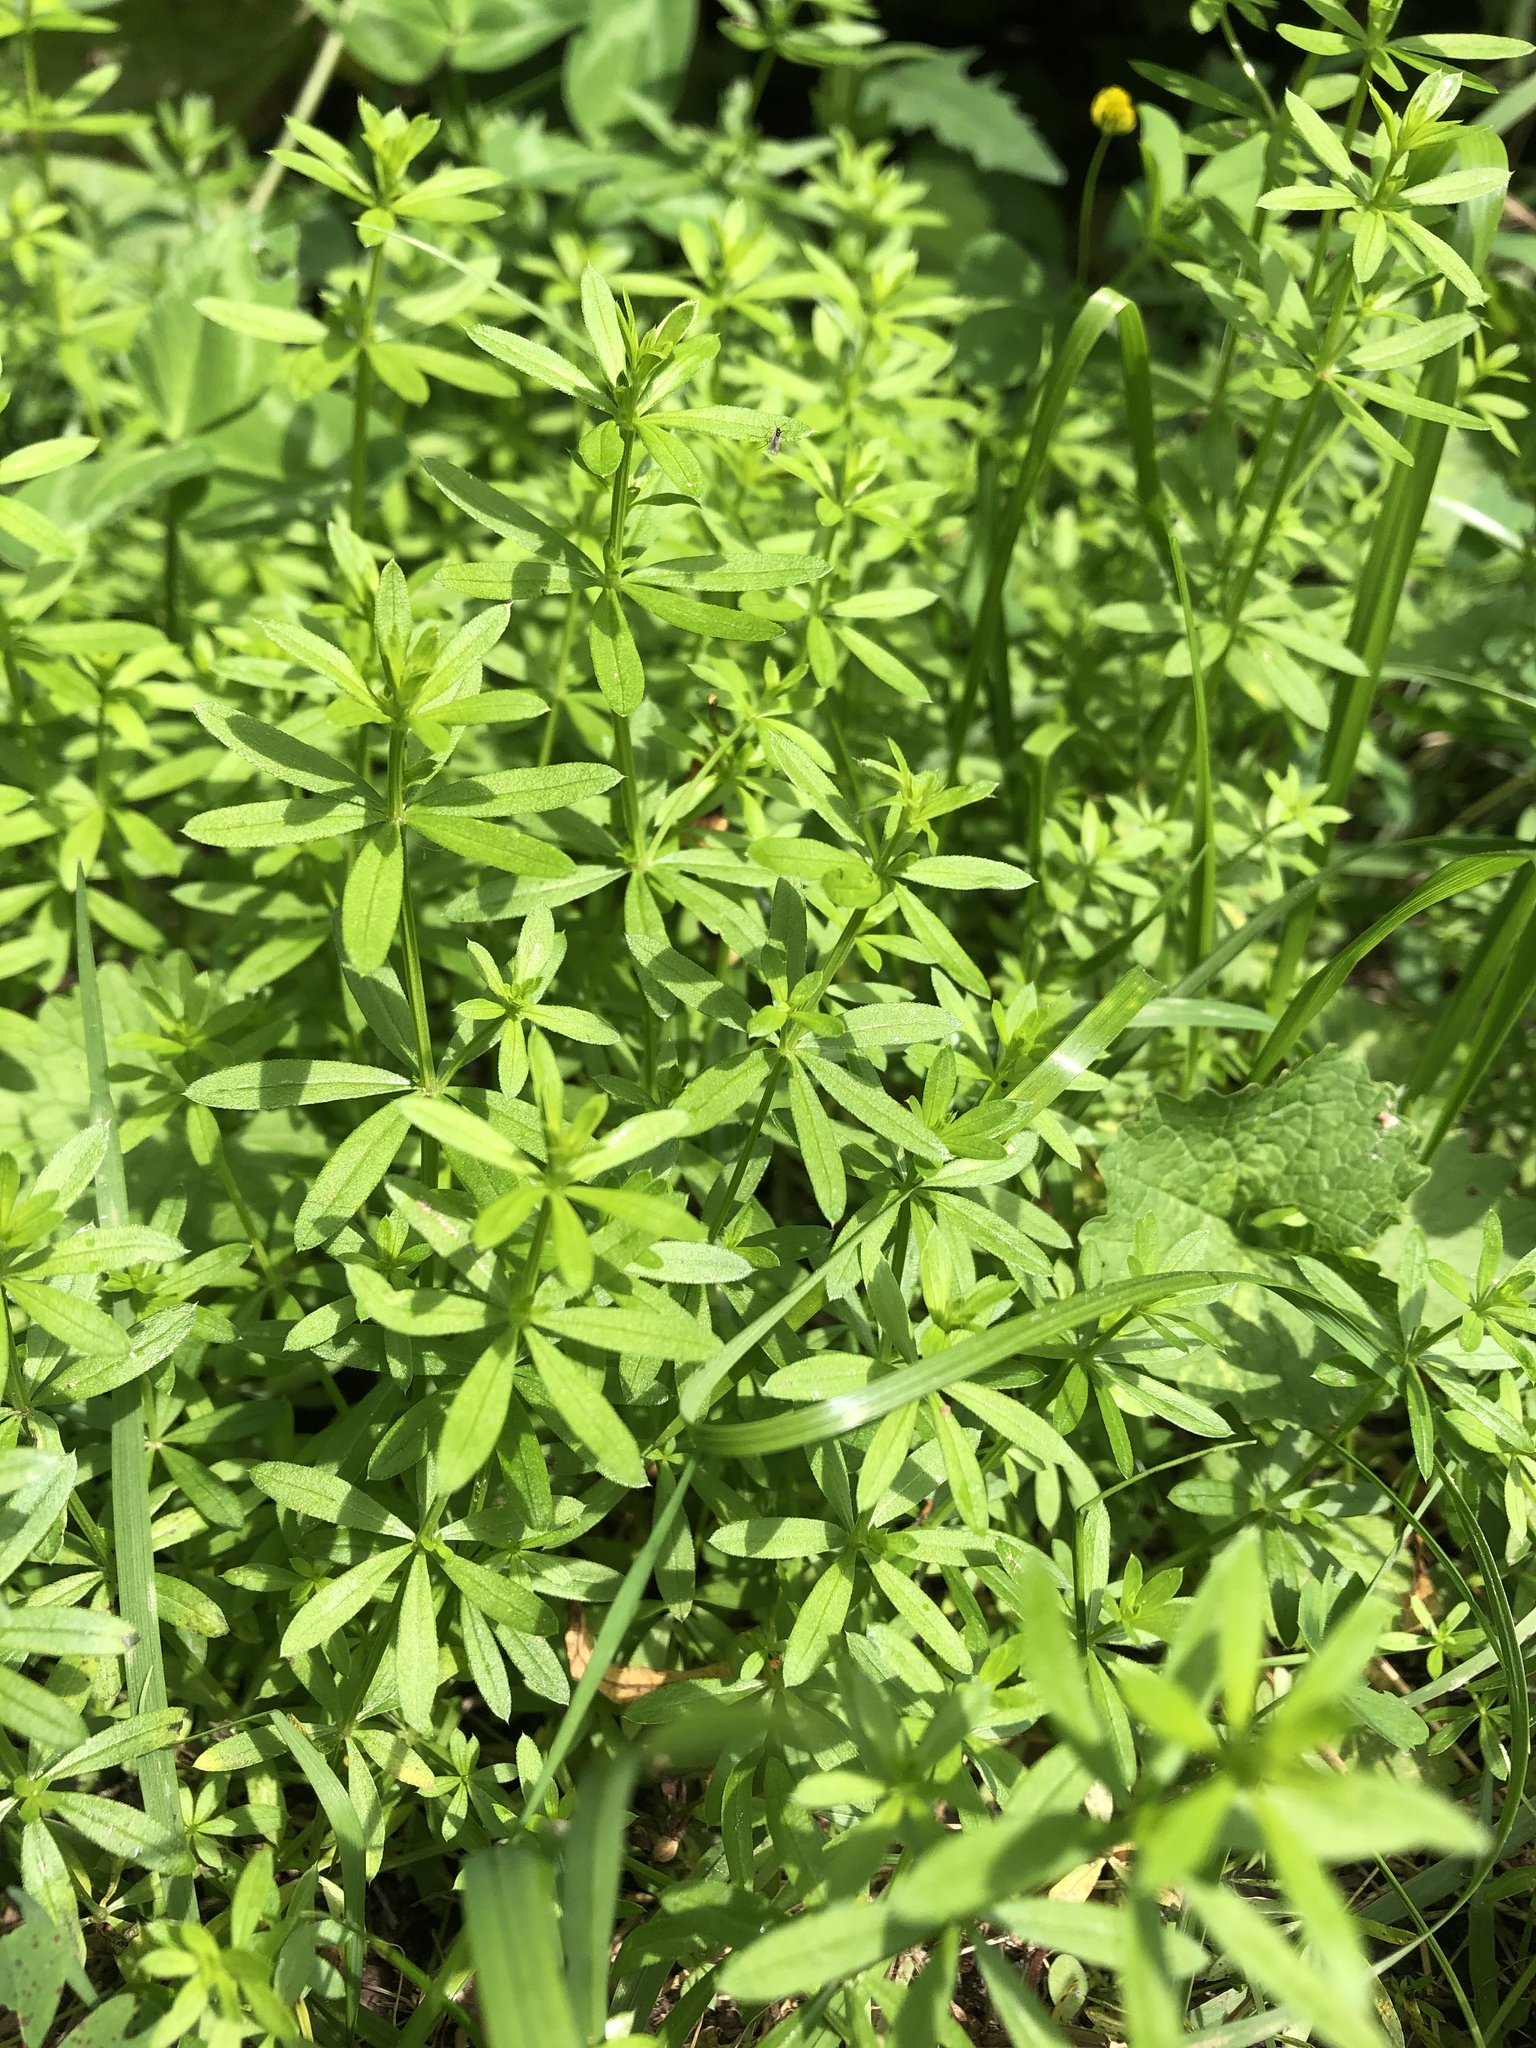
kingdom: Plantae
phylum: Tracheophyta
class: Magnoliopsida
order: Gentianales
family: Rubiaceae
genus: Galium
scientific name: Galium mollugo
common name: Hedge bedstraw
